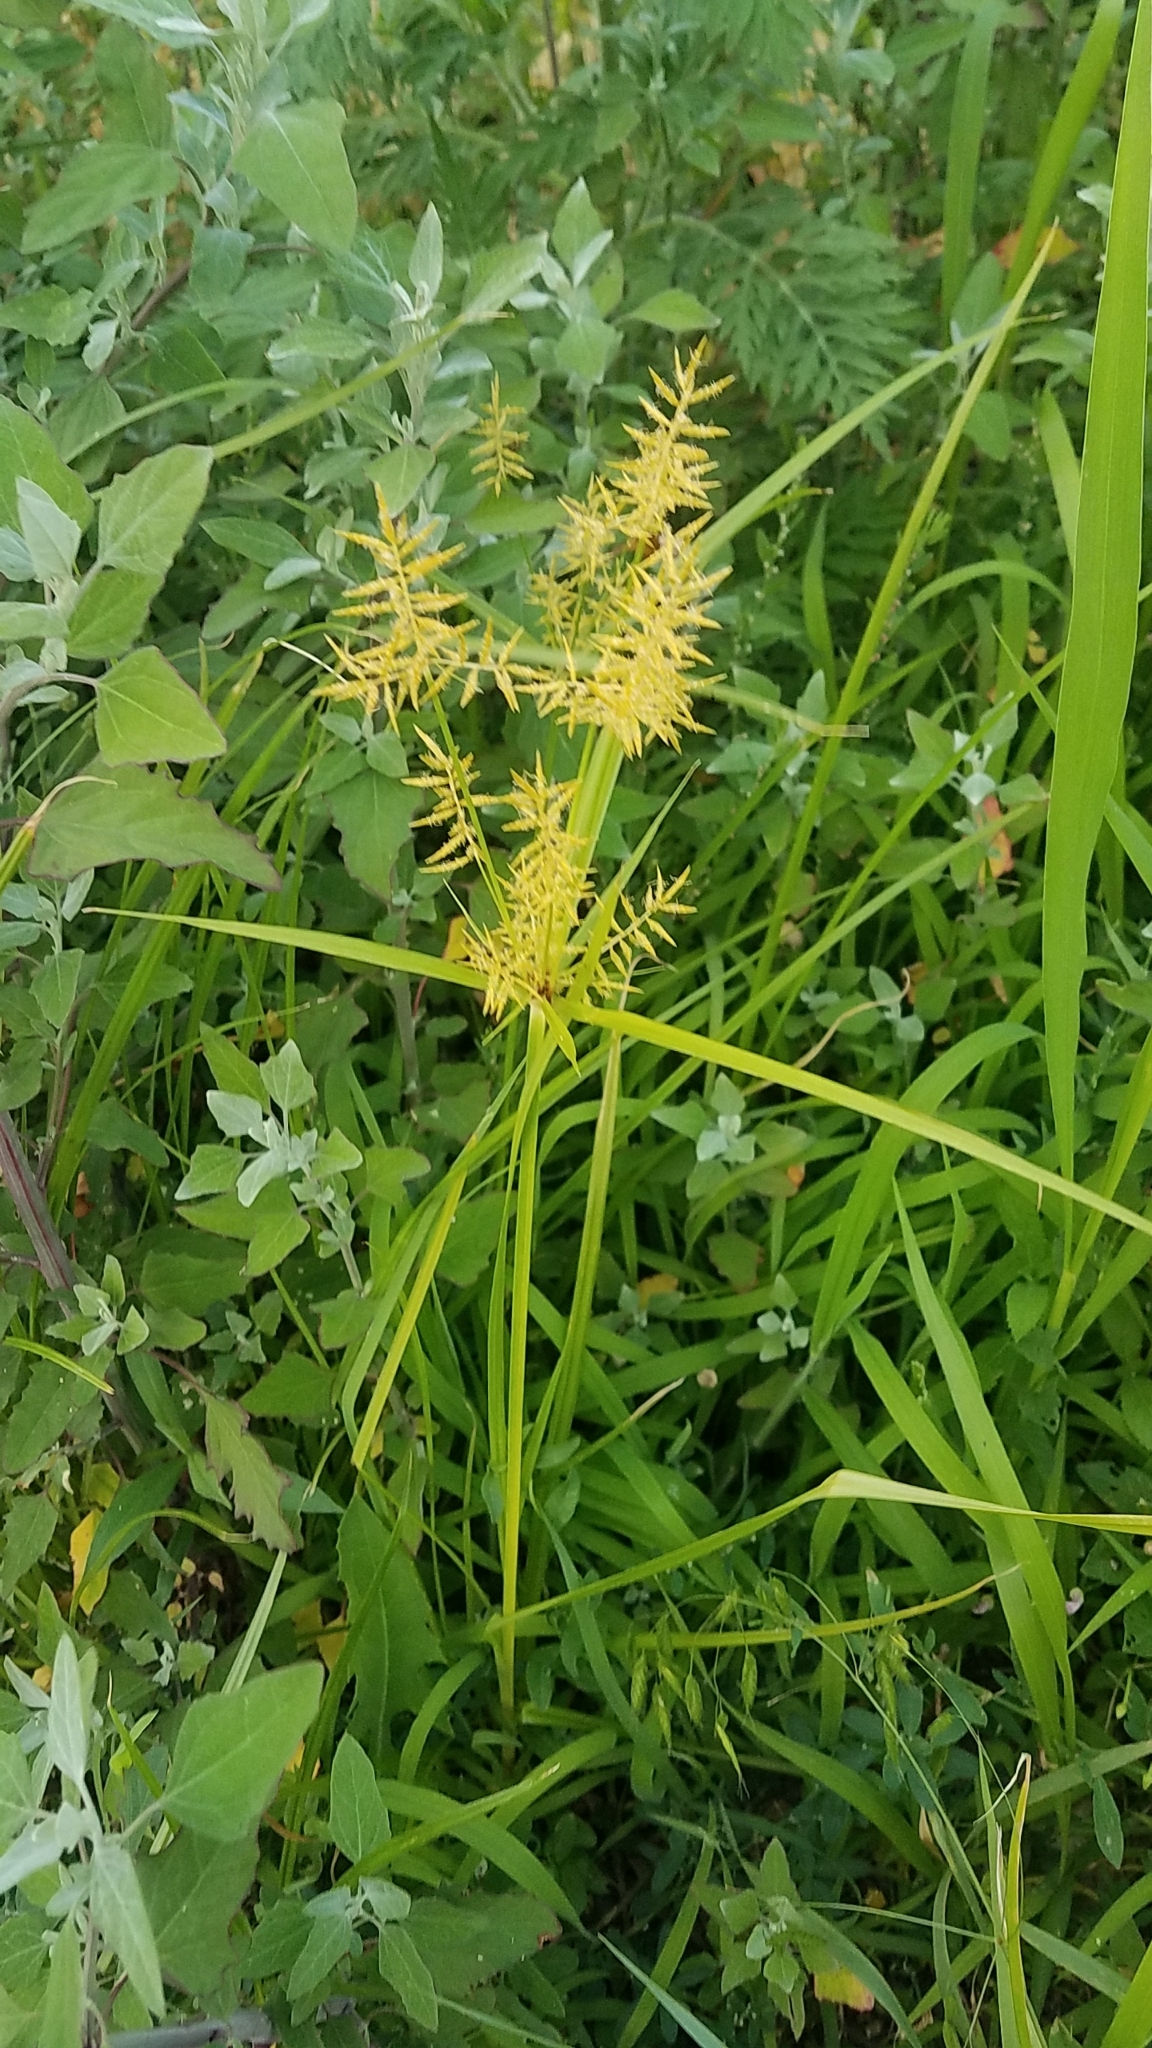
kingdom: Plantae
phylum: Tracheophyta
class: Liliopsida
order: Poales
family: Cyperaceae
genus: Cyperus
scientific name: Cyperus esculentus
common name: Yellow nutsedge
